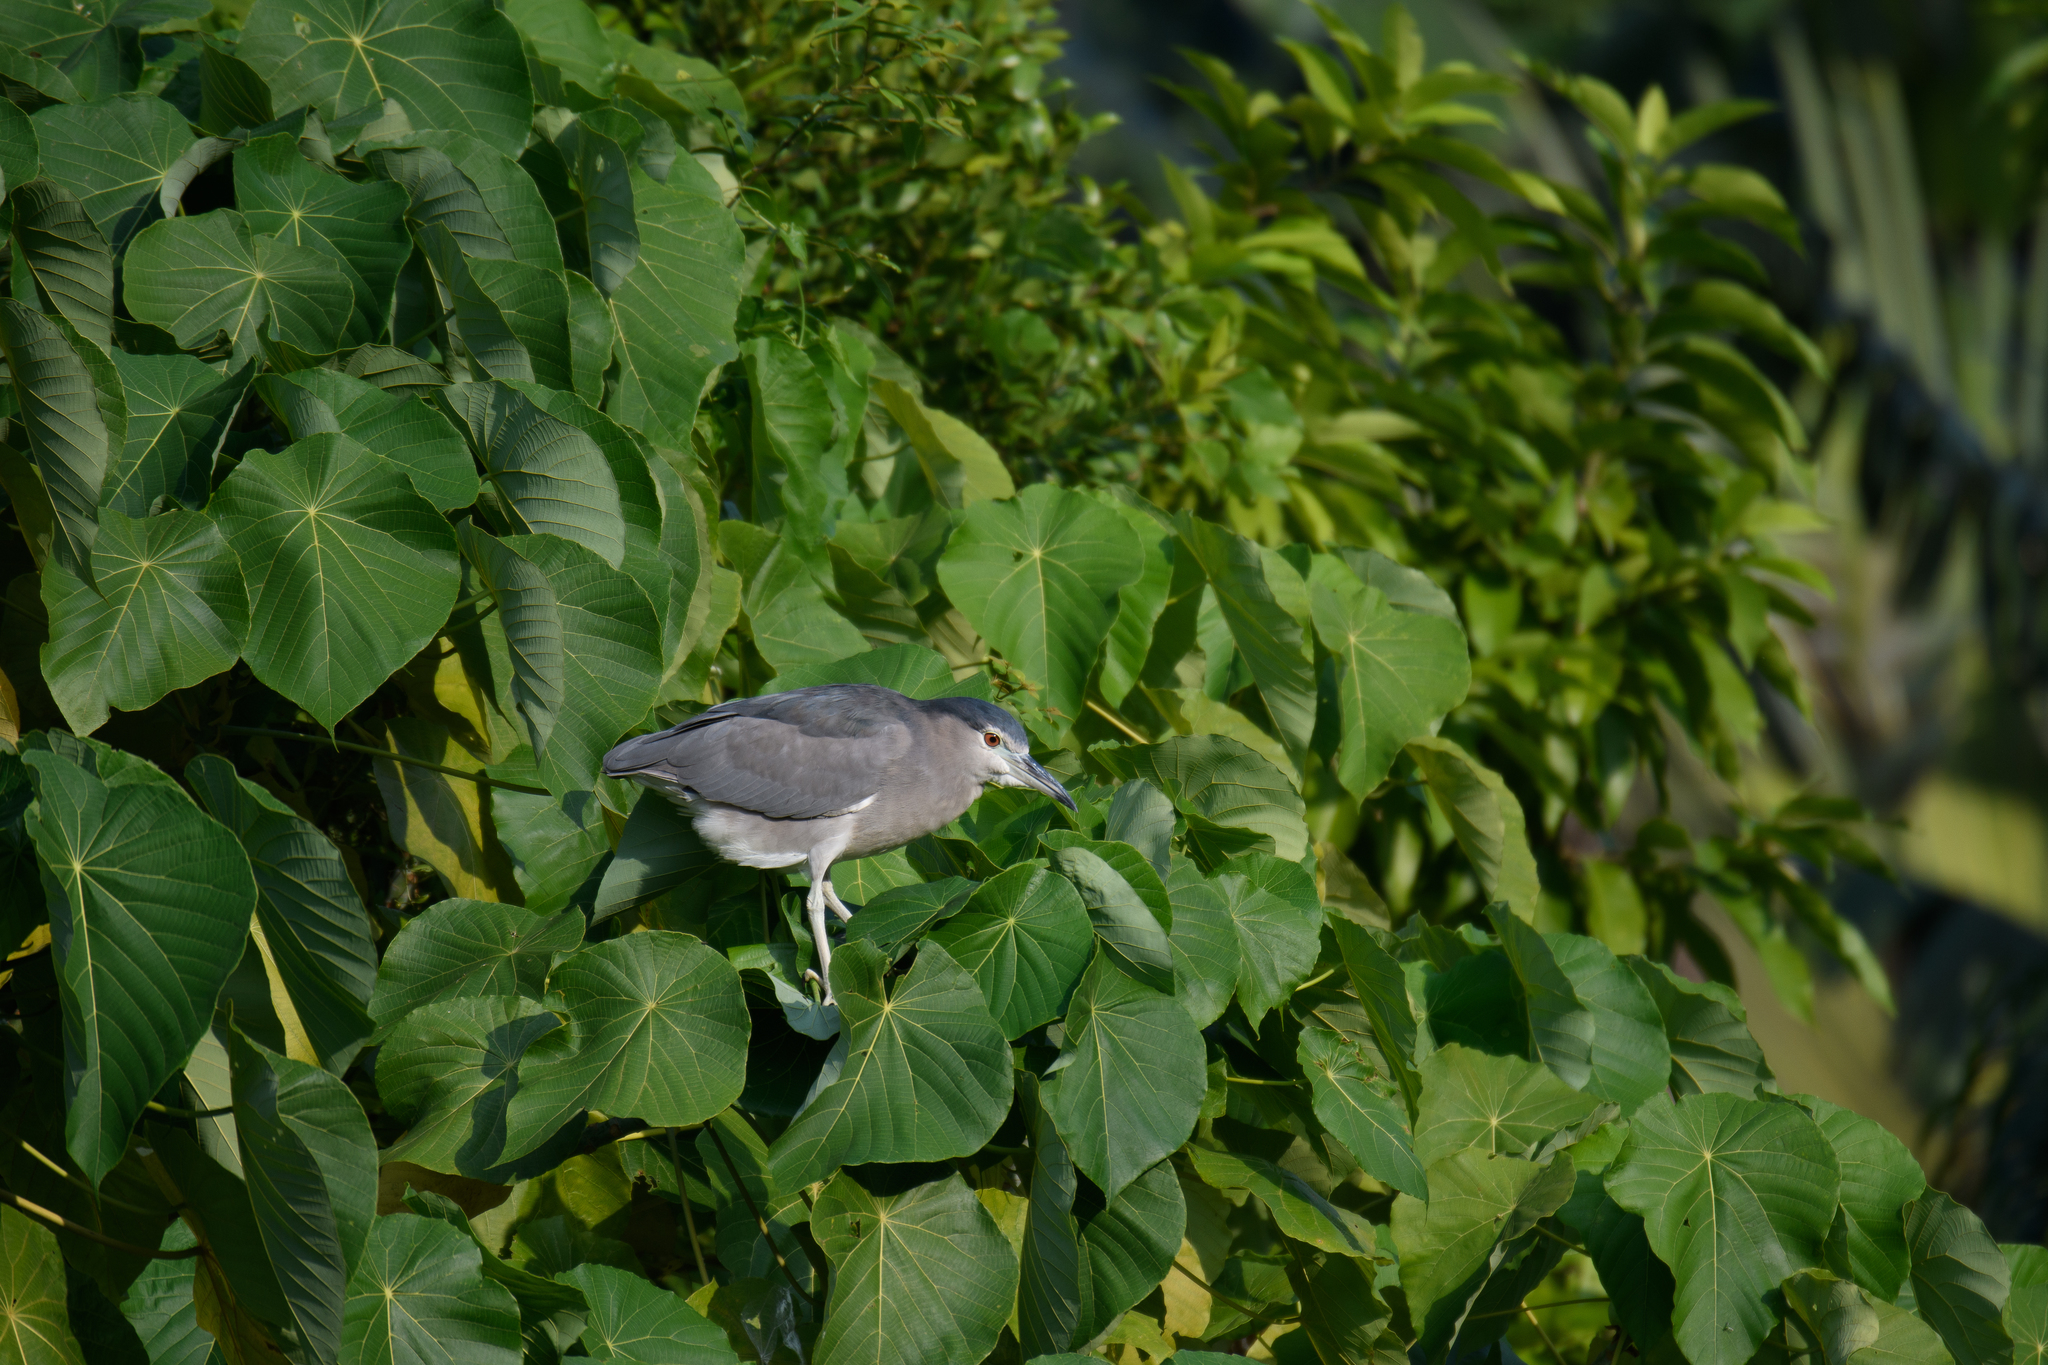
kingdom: Animalia
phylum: Chordata
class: Aves
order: Pelecaniformes
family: Ardeidae
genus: Nycticorax
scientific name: Nycticorax nycticorax
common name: Black-crowned night heron
